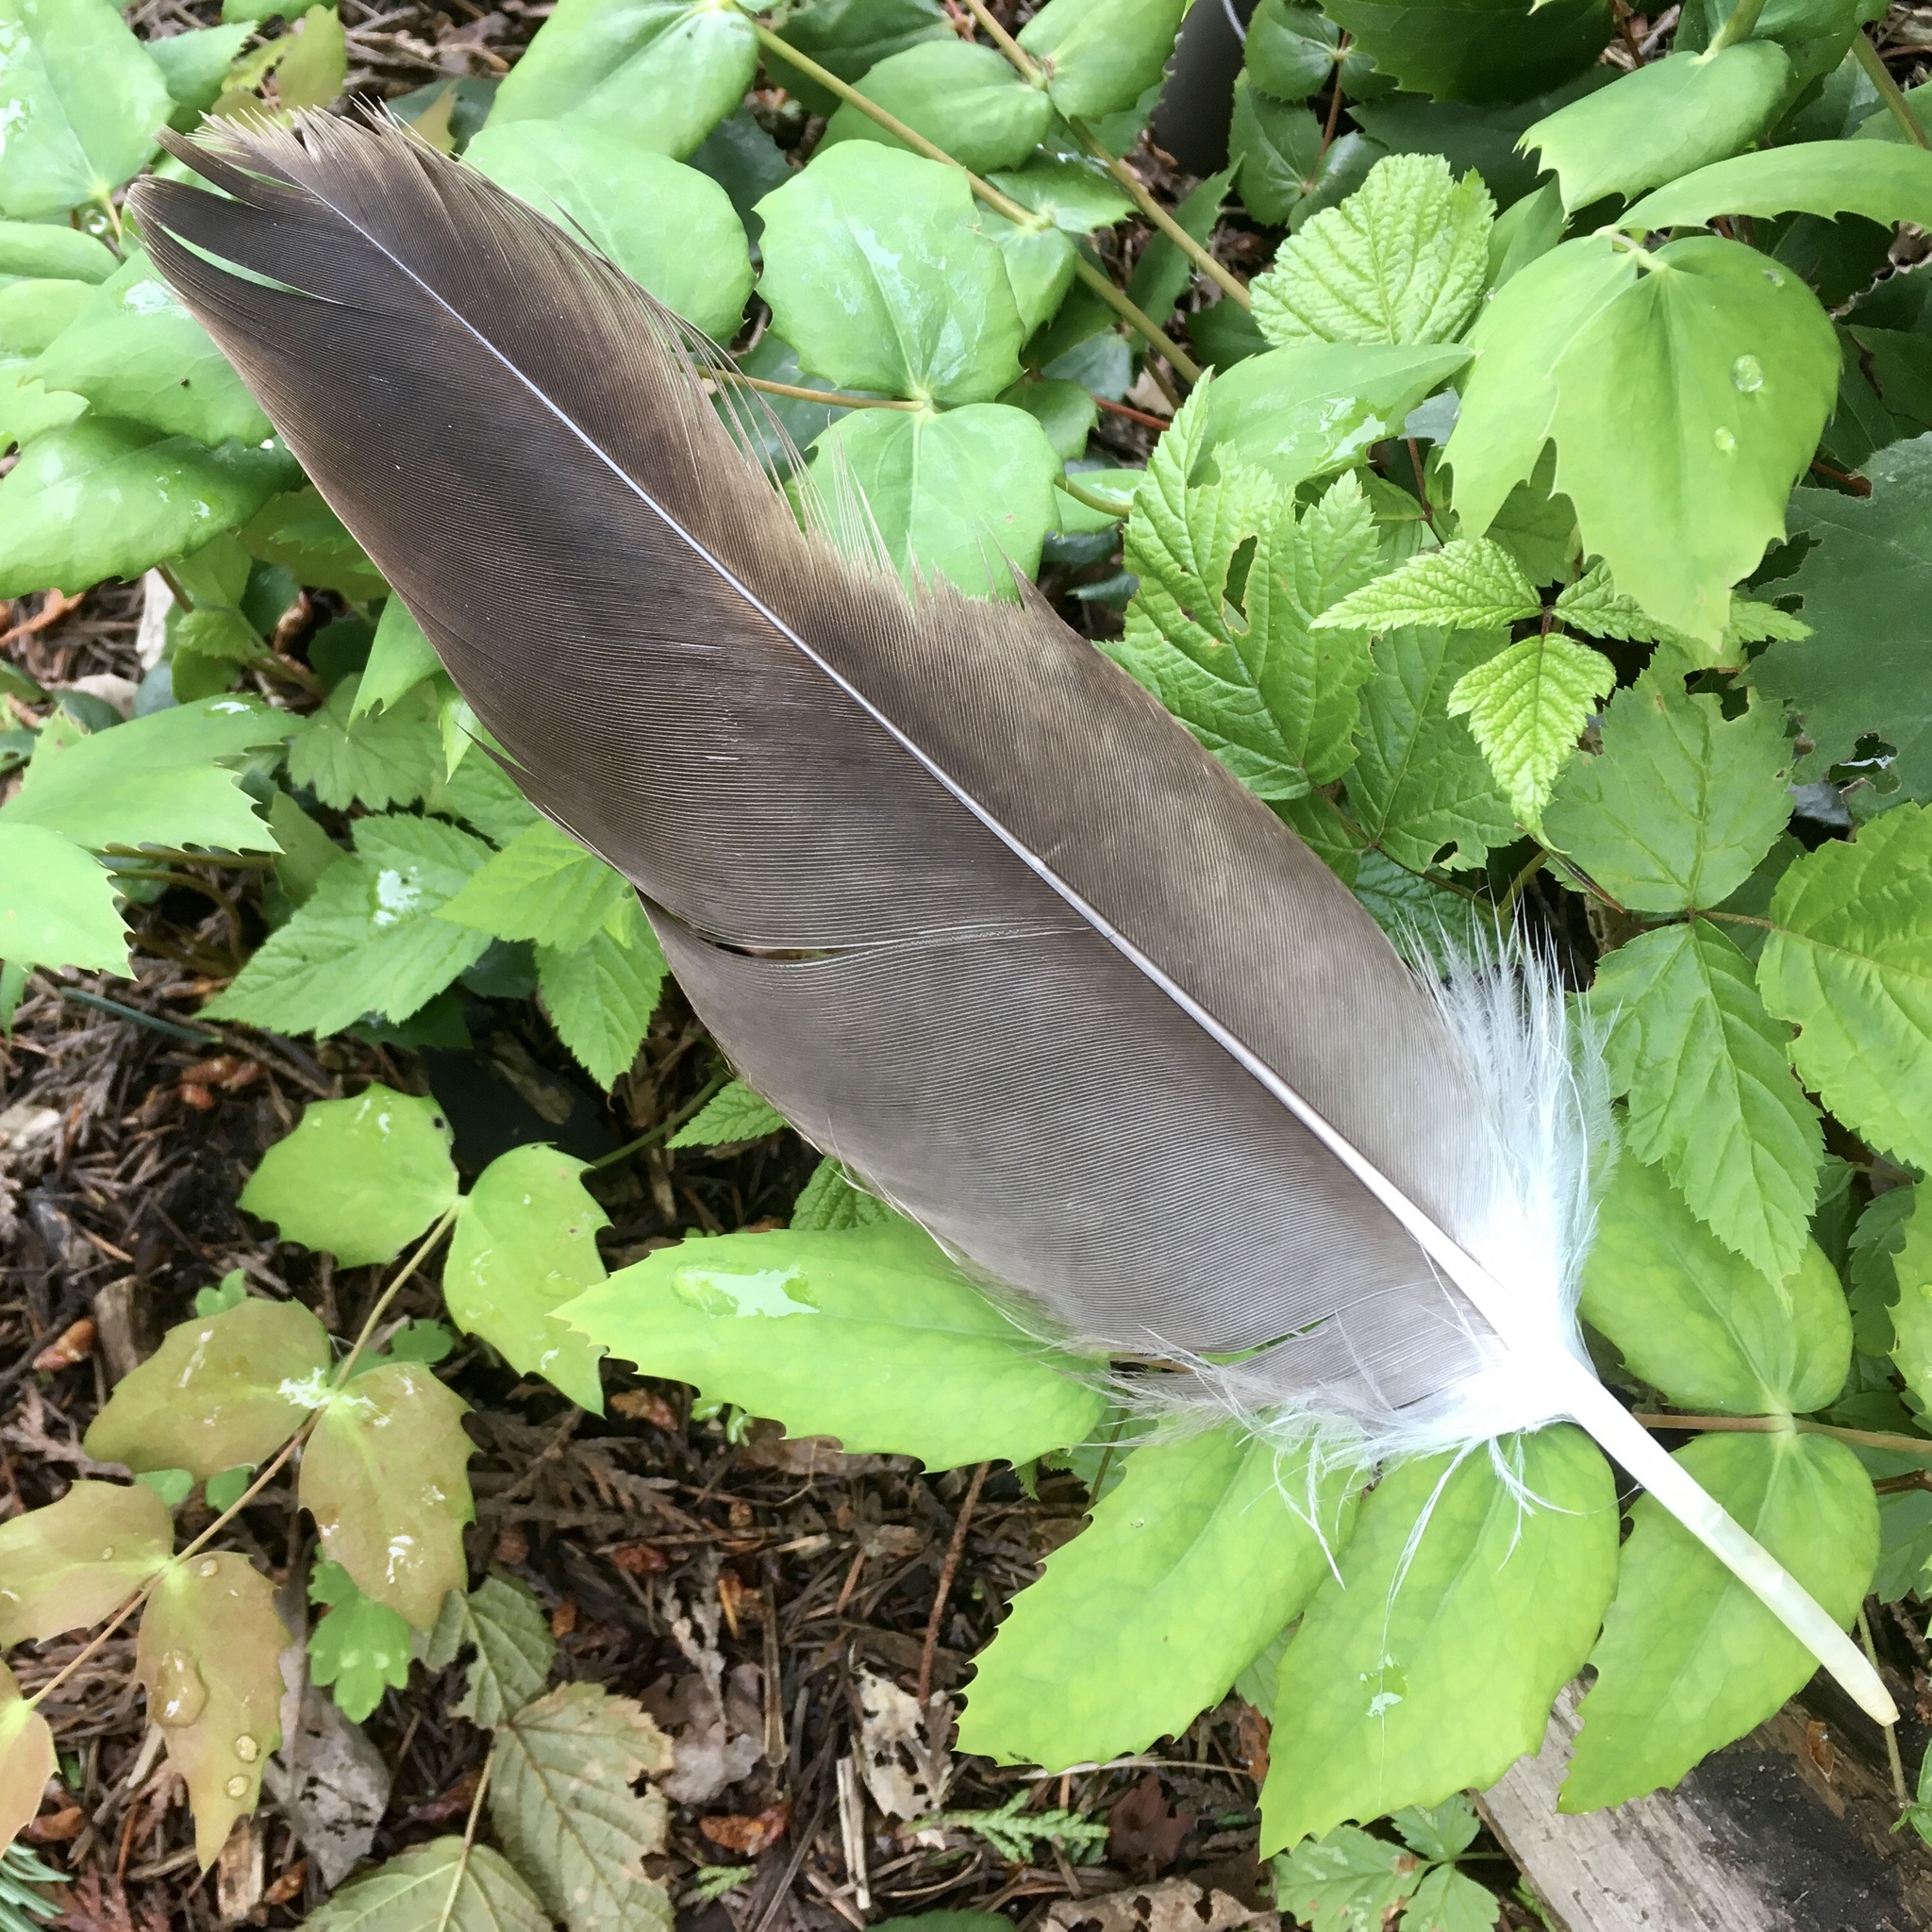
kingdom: Animalia
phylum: Chordata
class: Aves
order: Accipitriformes
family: Accipitridae
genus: Haliaeetus
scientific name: Haliaeetus leucocephalus
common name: Bald eagle
